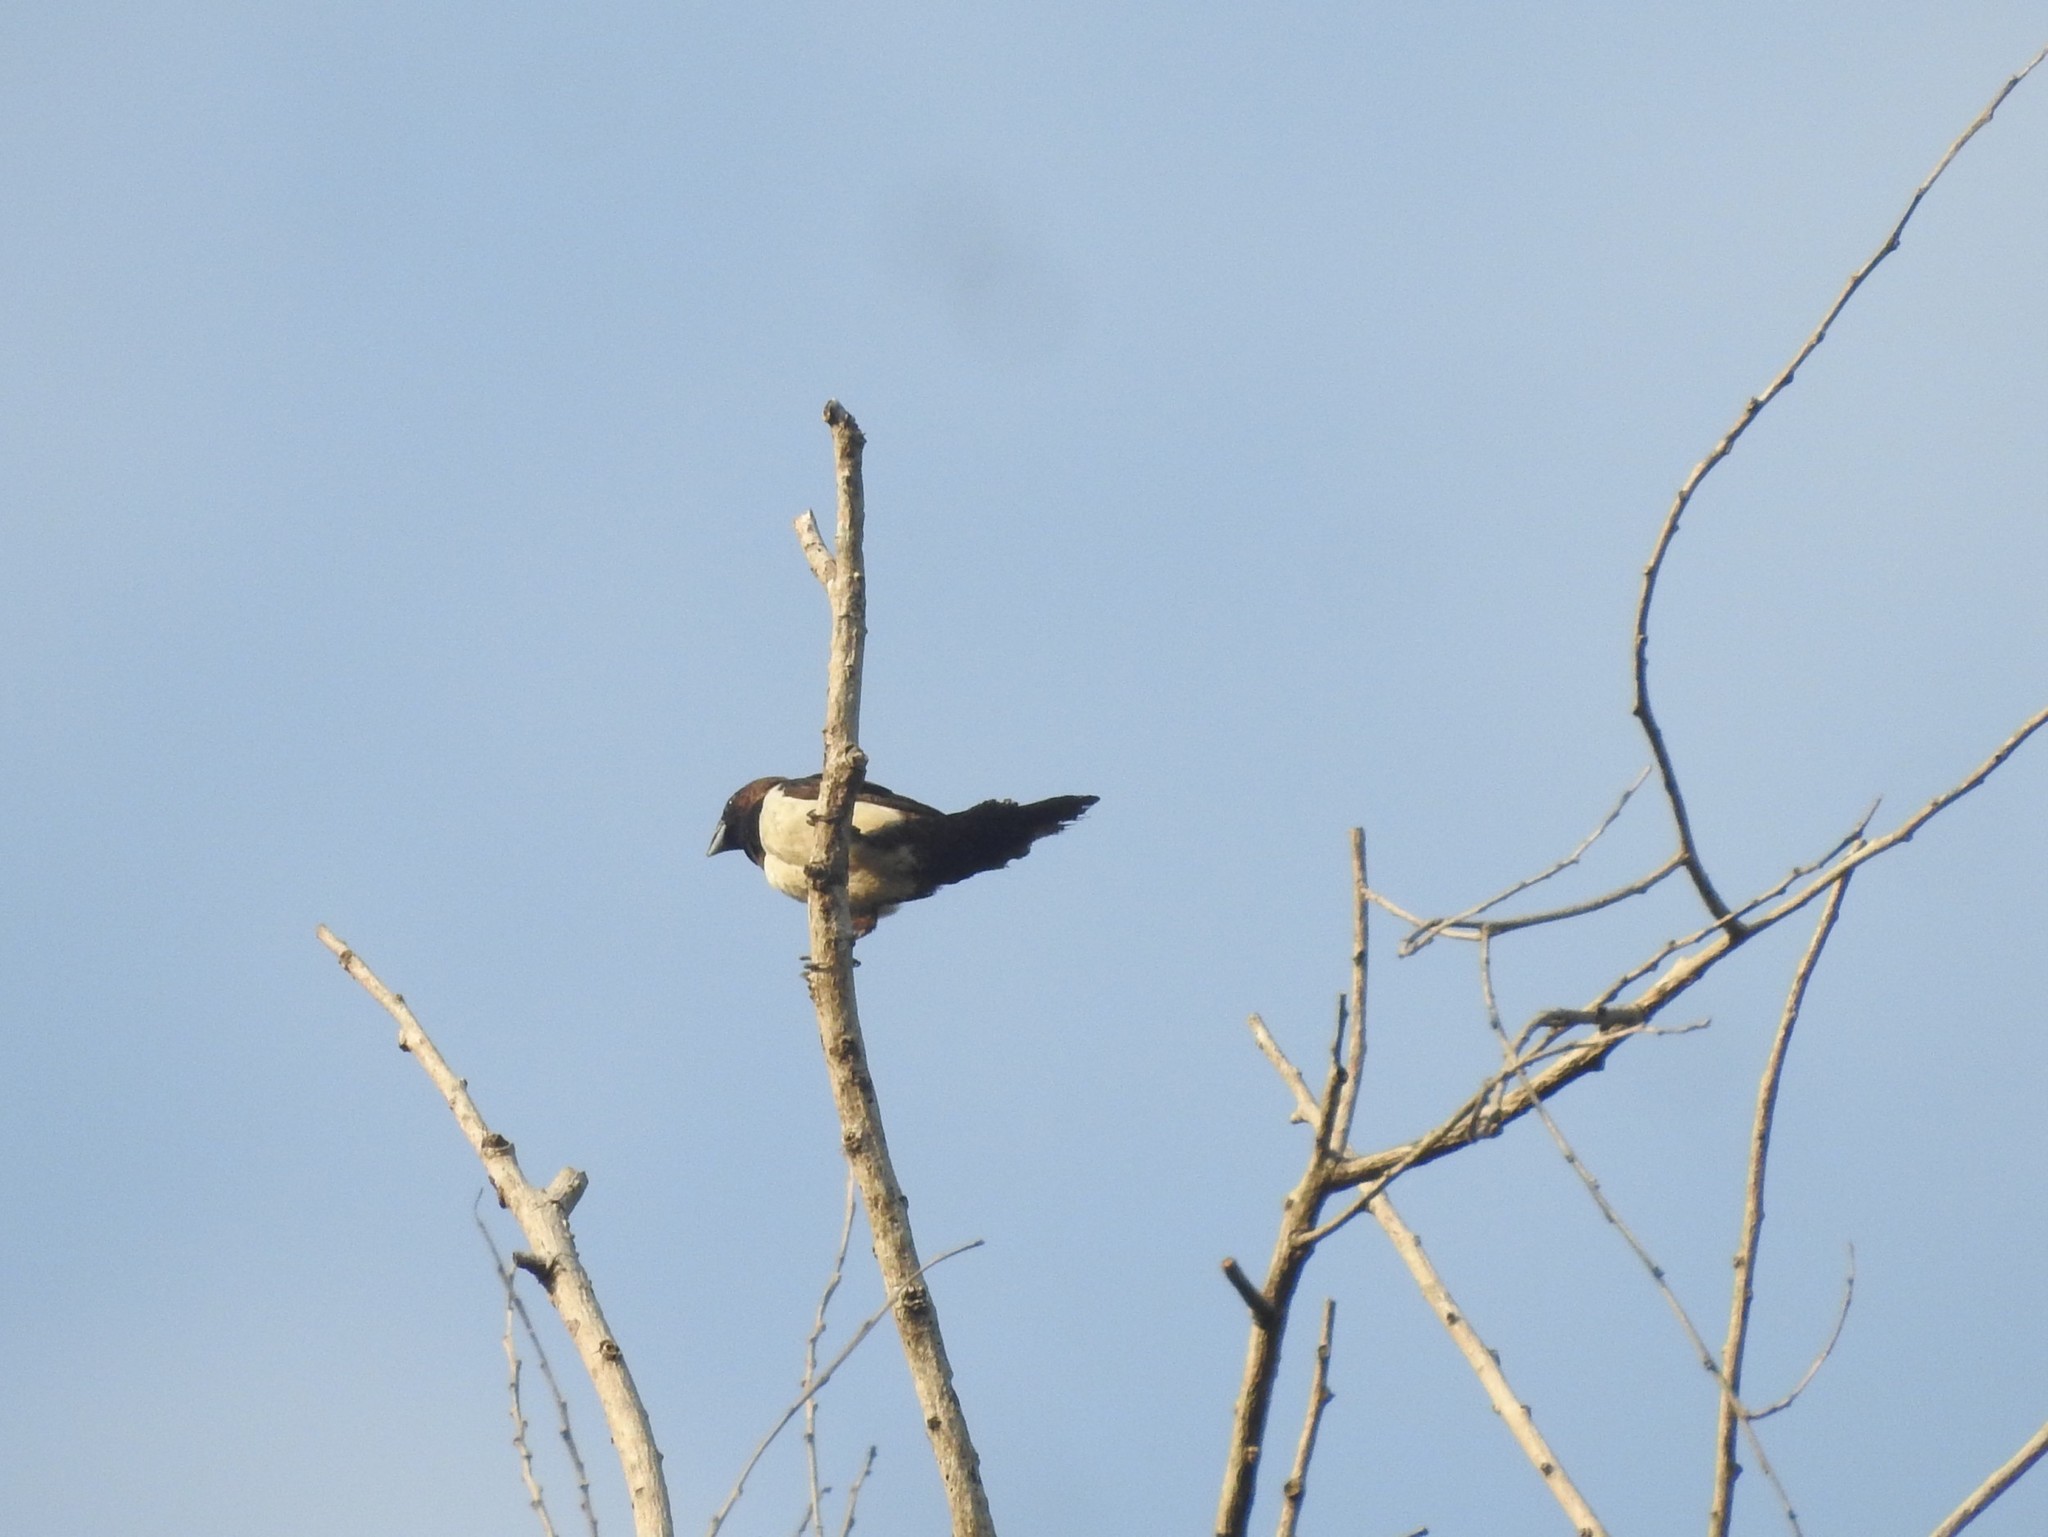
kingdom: Animalia
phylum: Chordata
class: Aves
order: Passeriformes
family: Estrildidae
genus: Lonchura
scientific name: Lonchura striata
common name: White-rumped munia
